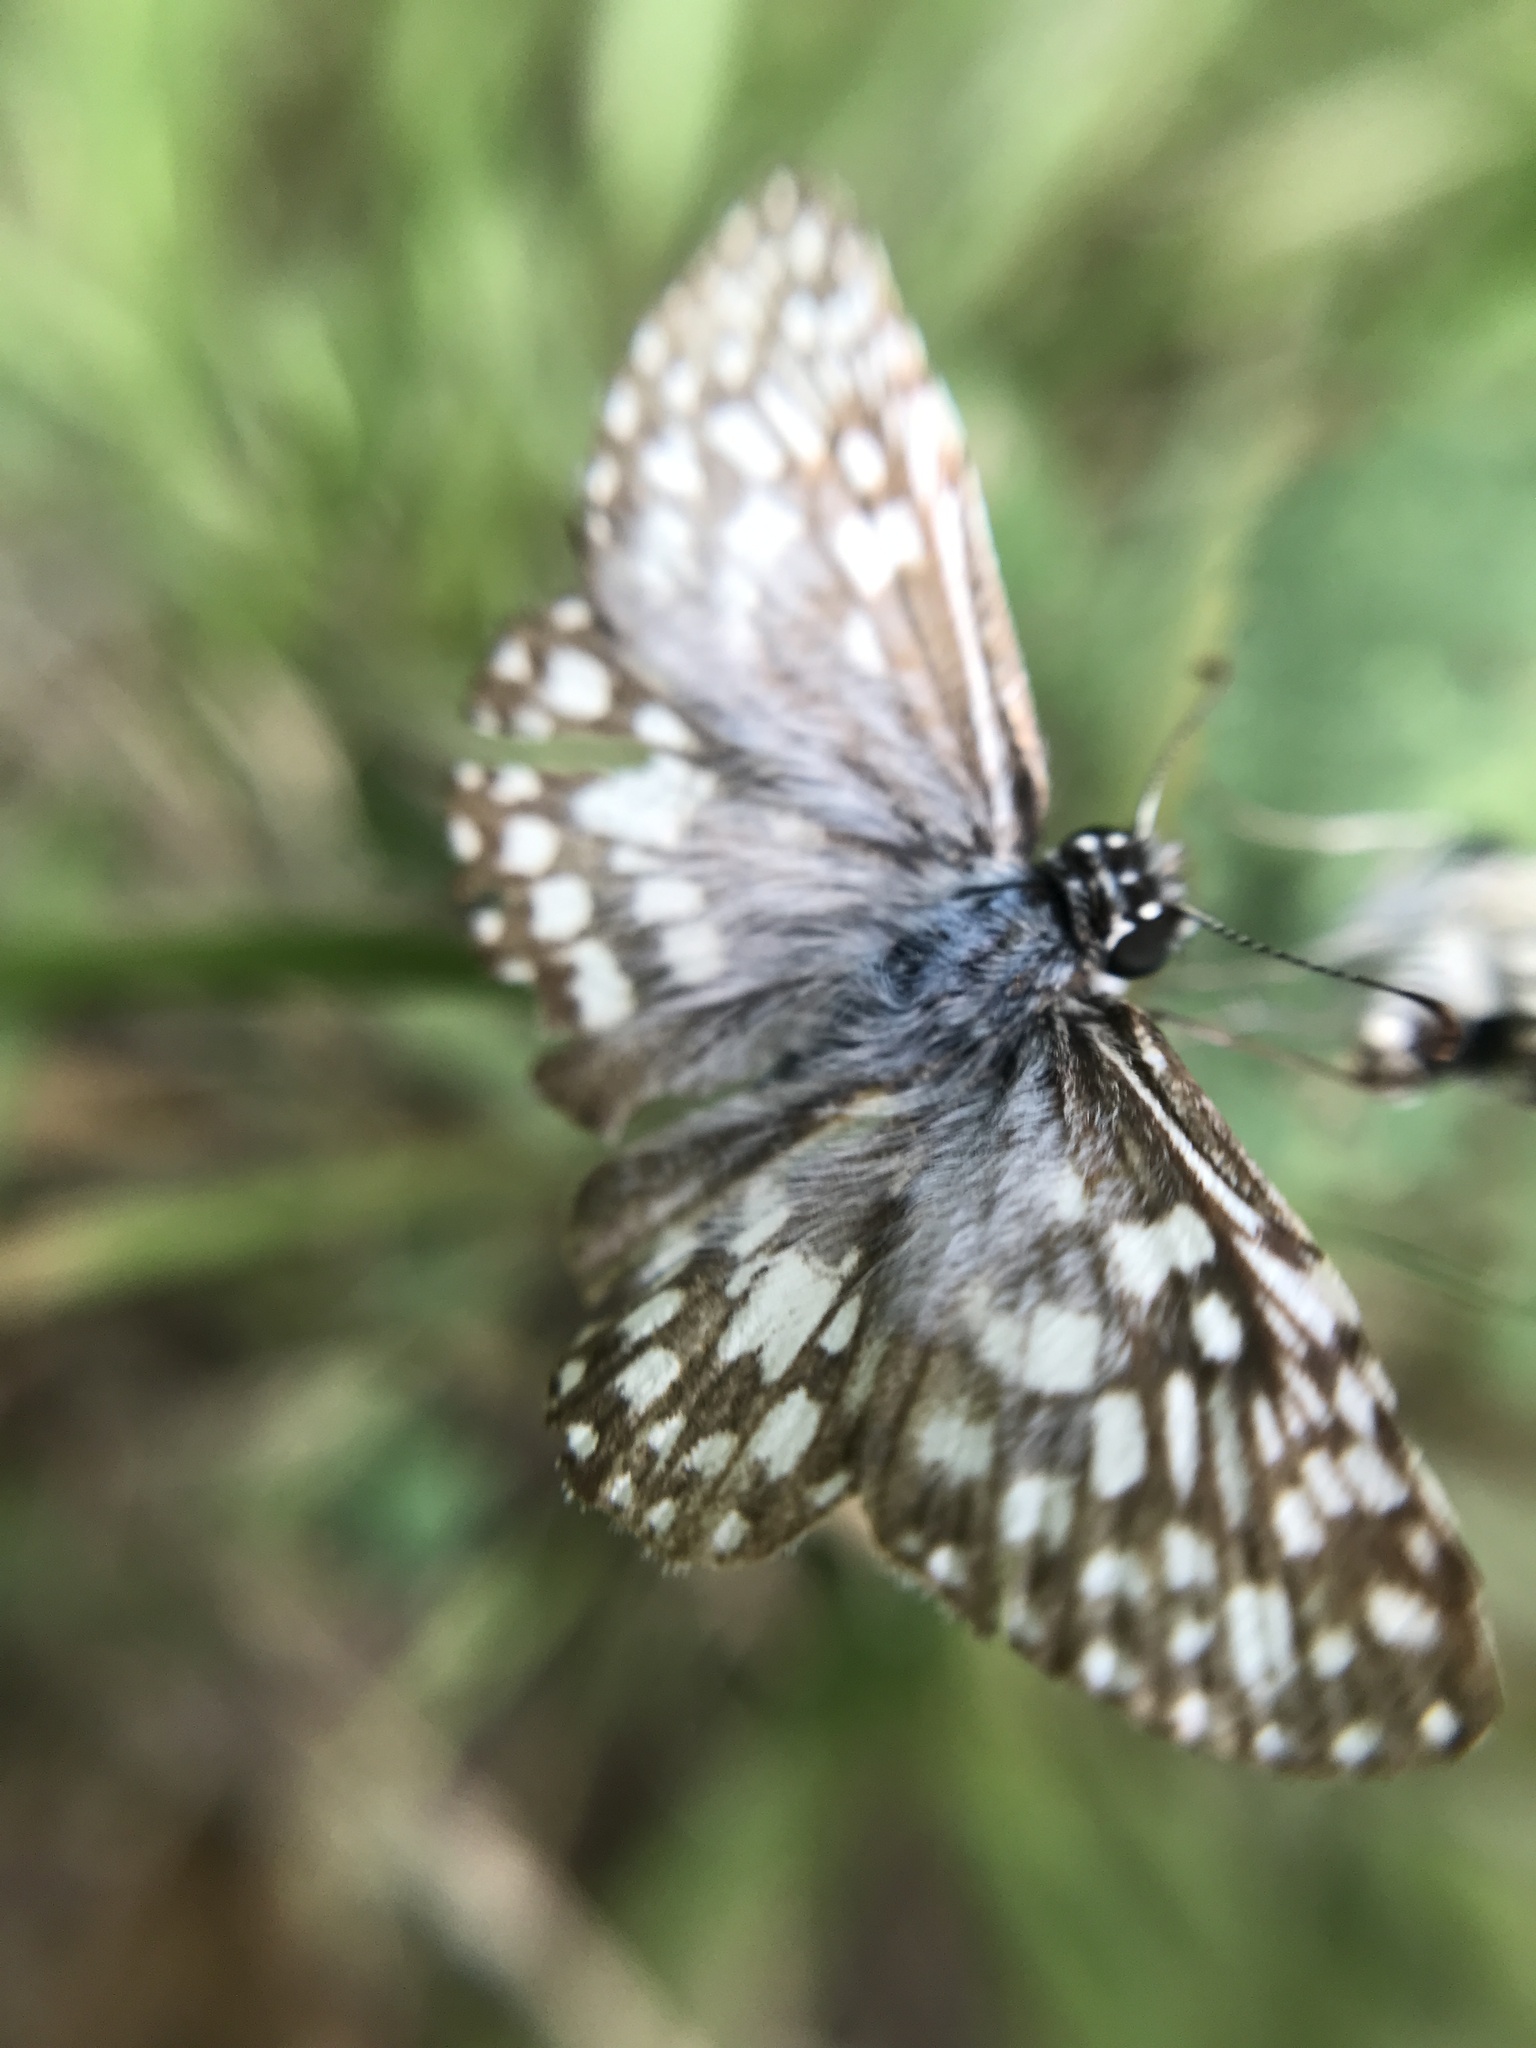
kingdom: Animalia
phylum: Arthropoda
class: Insecta
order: Lepidoptera
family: Hesperiidae
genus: Pyrgus
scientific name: Pyrgus oileus
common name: Tropical checkered-skipper
